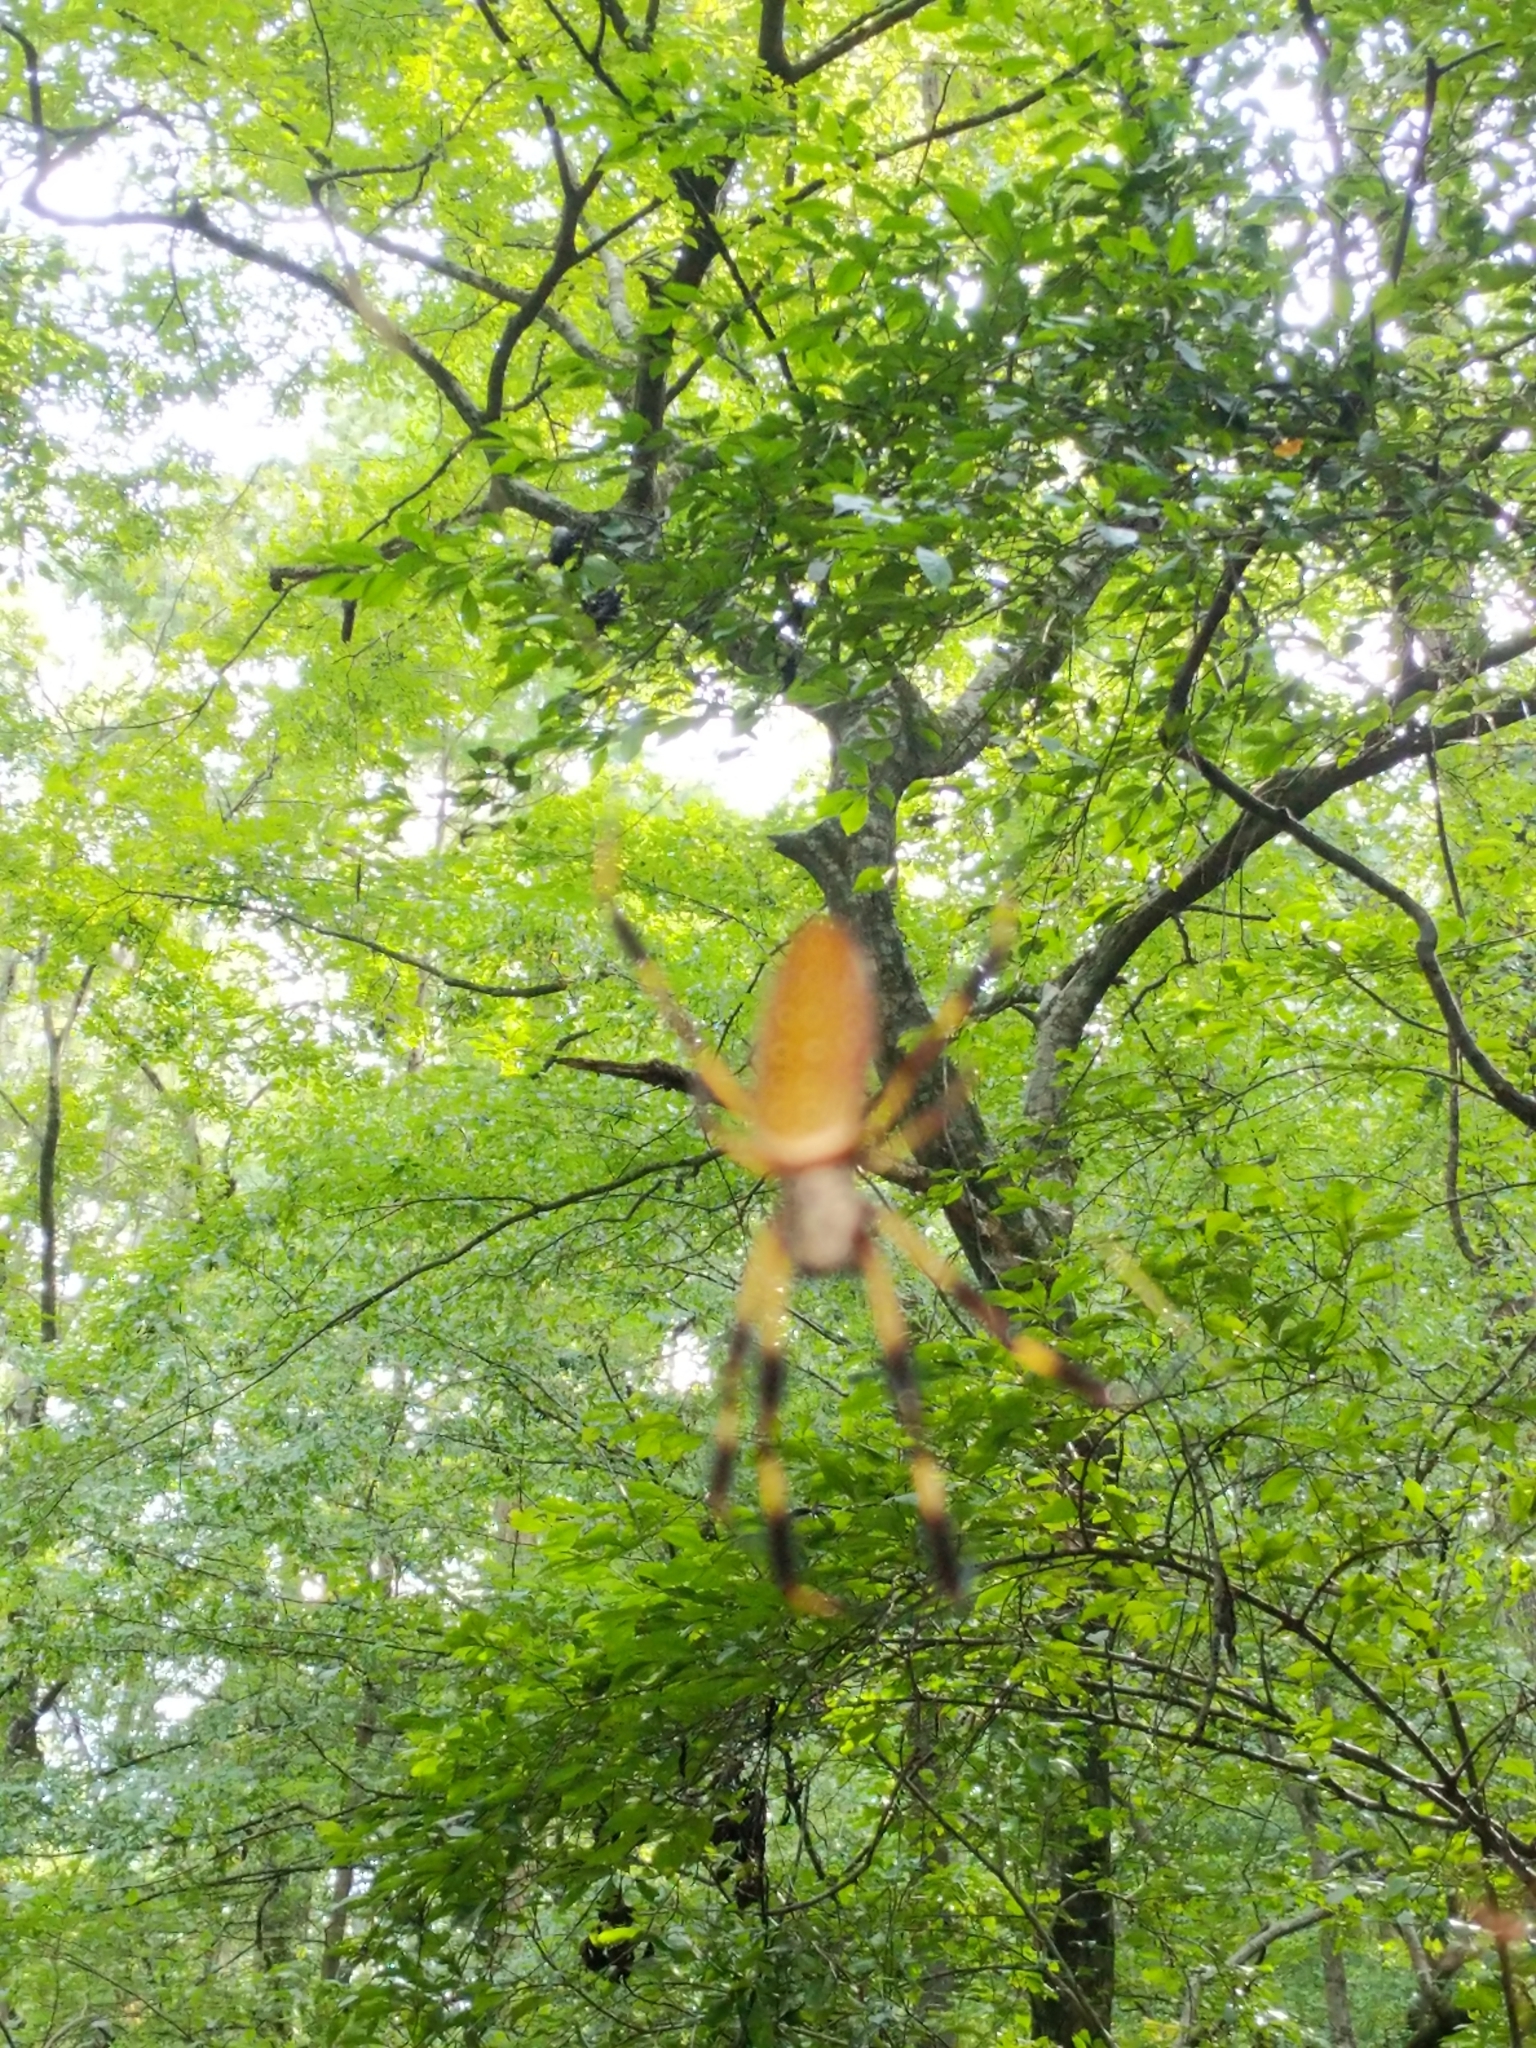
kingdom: Animalia
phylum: Arthropoda
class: Arachnida
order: Araneae
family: Araneidae
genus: Trichonephila
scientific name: Trichonephila clavipes
